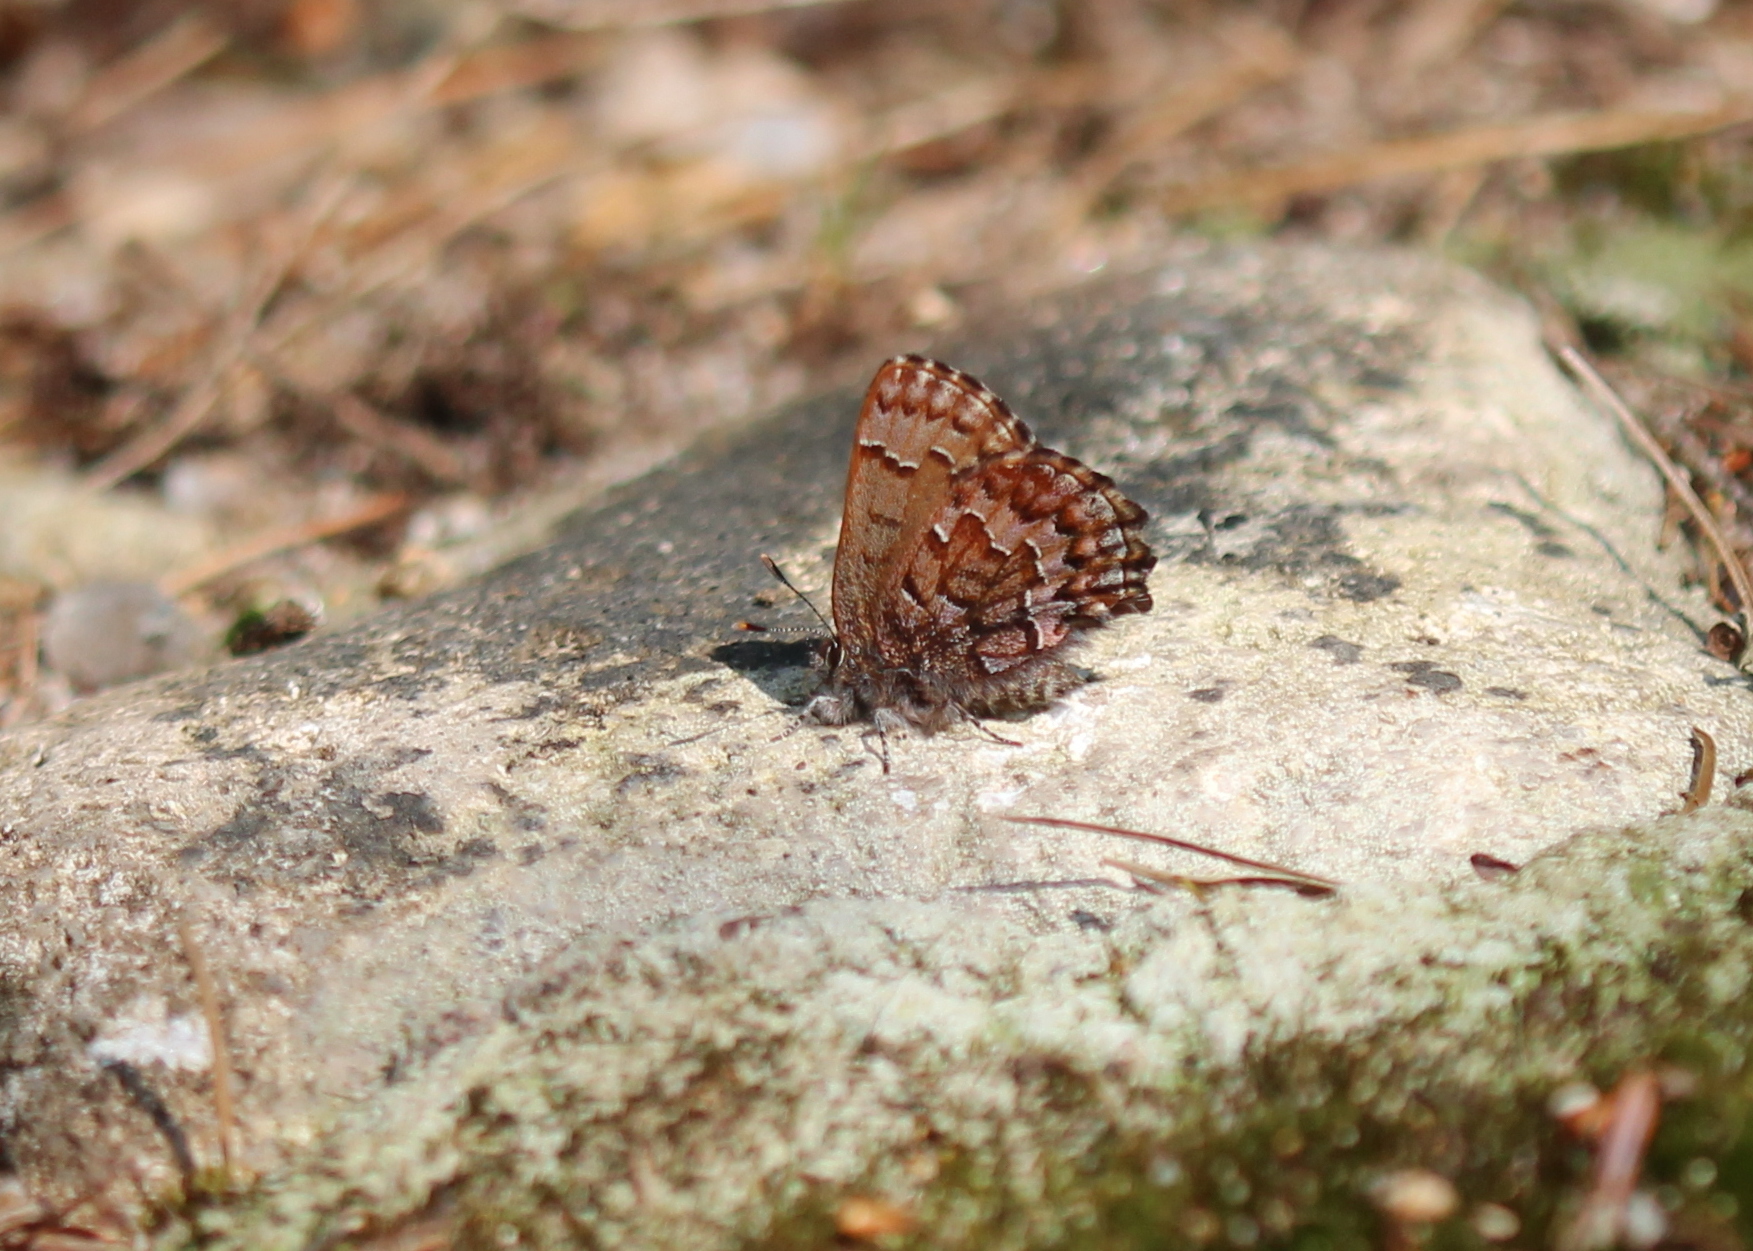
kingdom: Animalia
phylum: Arthropoda
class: Insecta
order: Lepidoptera
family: Lycaenidae
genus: Incisalia
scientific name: Incisalia niphon
